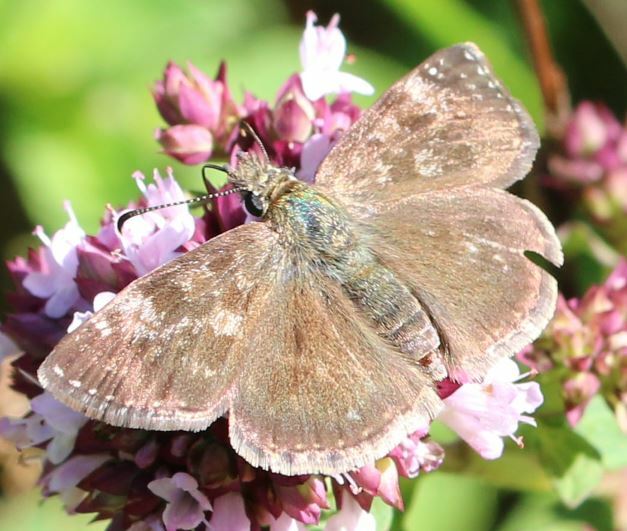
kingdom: Animalia
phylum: Arthropoda
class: Insecta
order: Lepidoptera
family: Hesperiidae
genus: Erynnis
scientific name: Erynnis tages
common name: Dingy skipper
